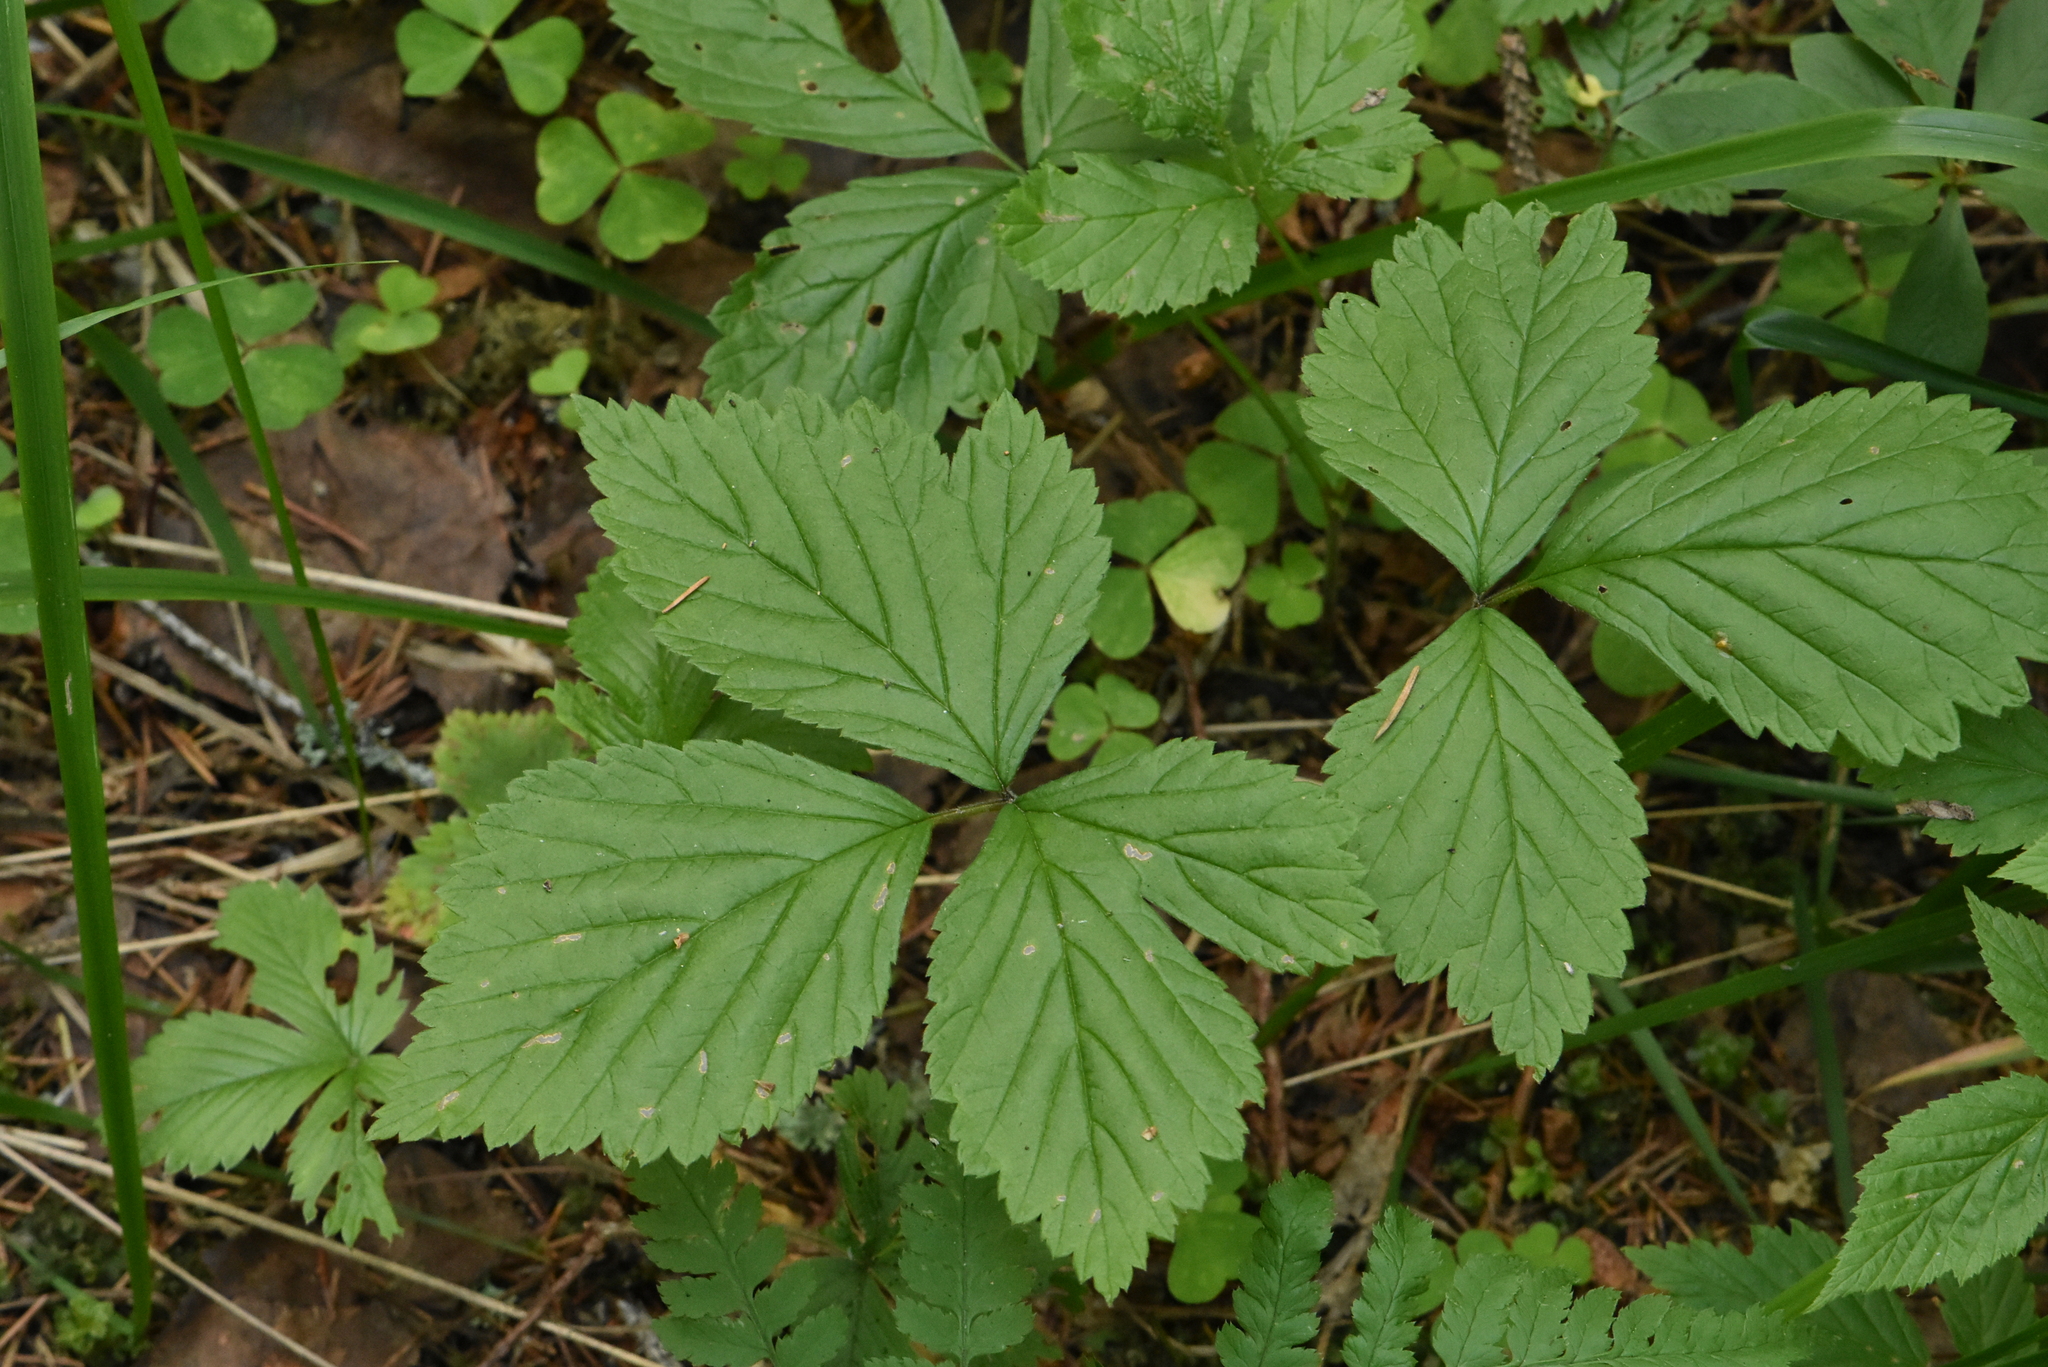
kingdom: Plantae
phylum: Tracheophyta
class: Magnoliopsida
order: Rosales
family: Rosaceae
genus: Rubus
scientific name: Rubus saxatilis
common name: Stone bramble
